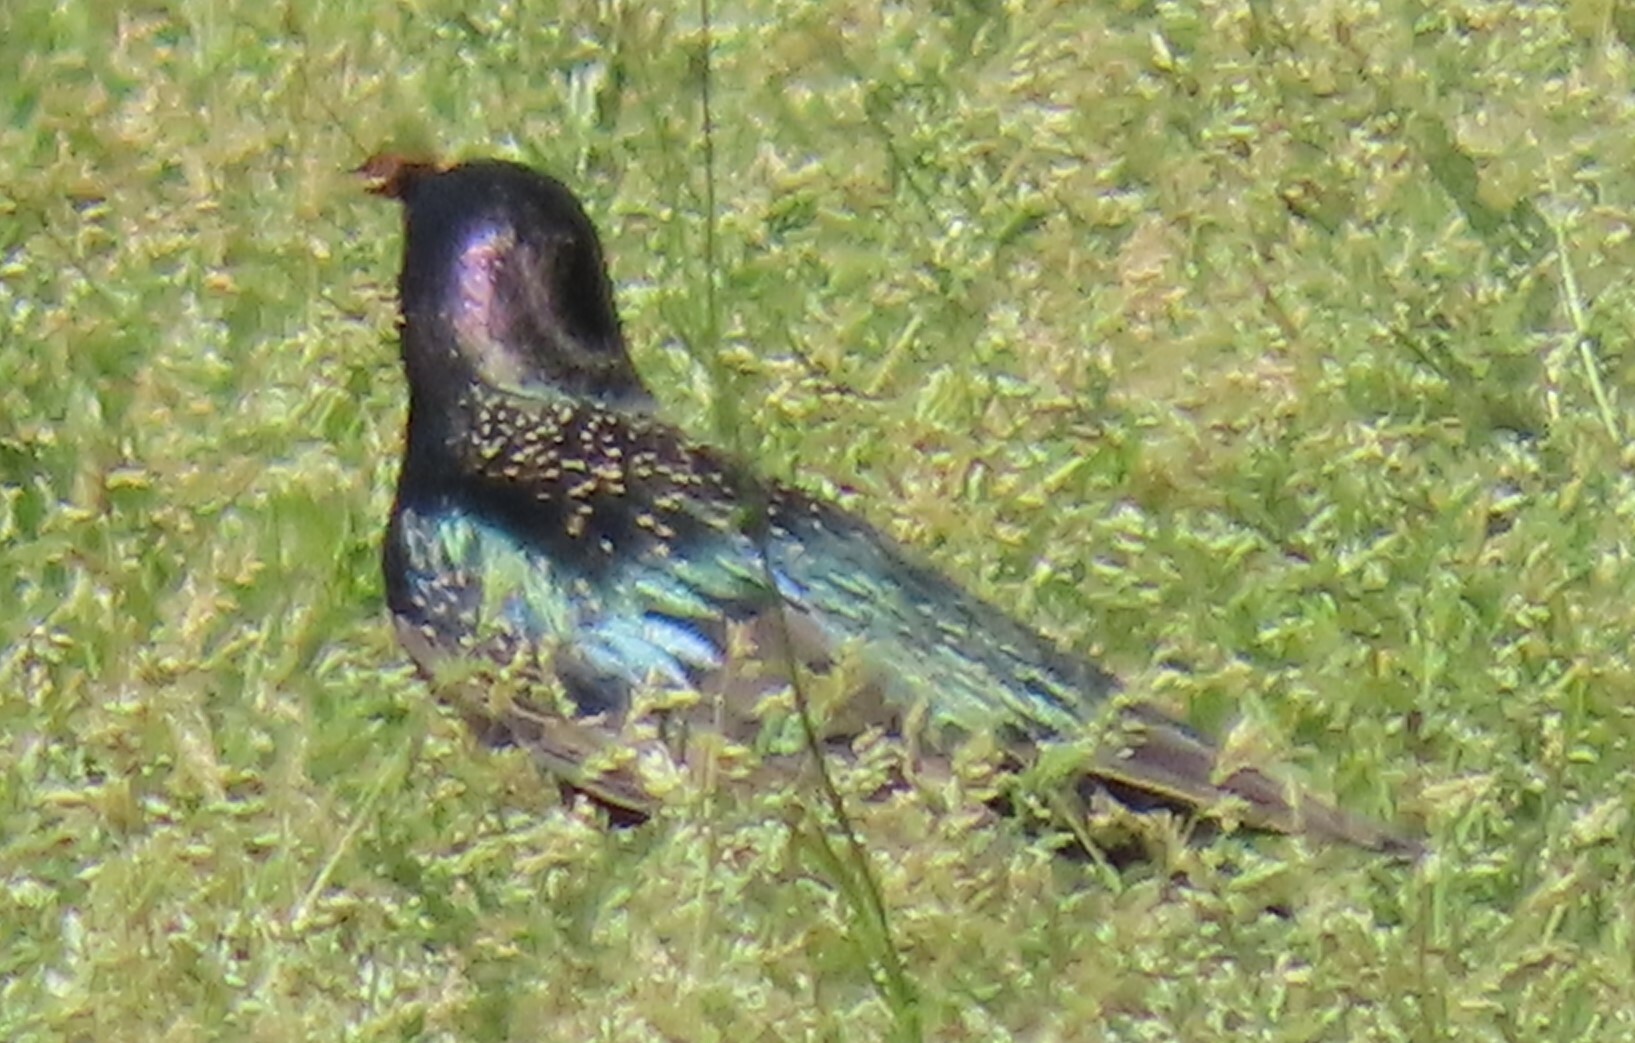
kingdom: Animalia
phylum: Chordata
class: Aves
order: Passeriformes
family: Sturnidae
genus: Sturnus
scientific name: Sturnus vulgaris
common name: Common starling
